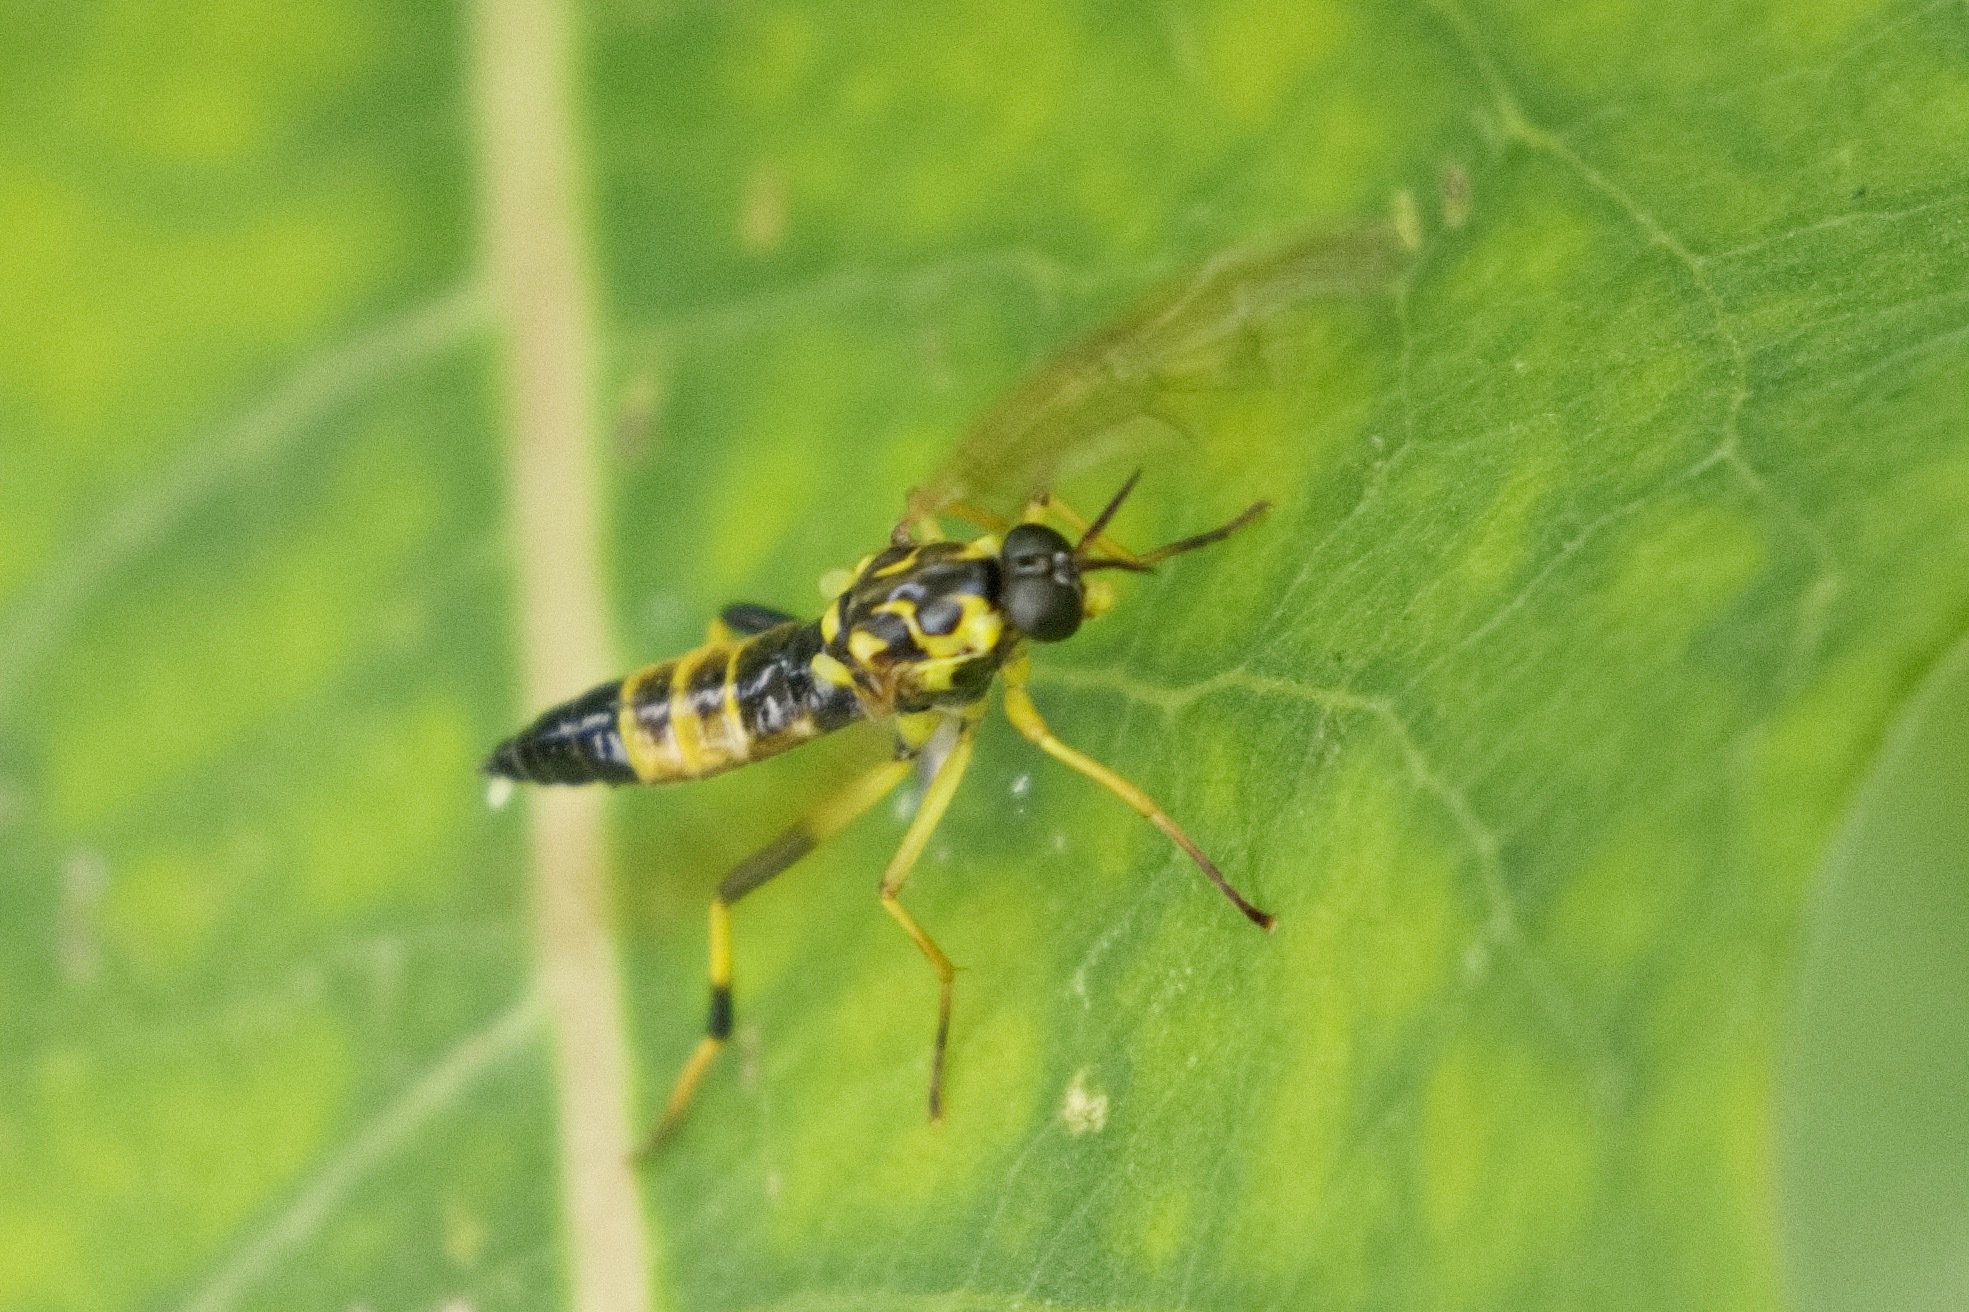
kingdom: Animalia
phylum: Arthropoda
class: Insecta
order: Diptera
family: Xylomyidae
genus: Xylomya
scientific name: Xylomya terminalis
